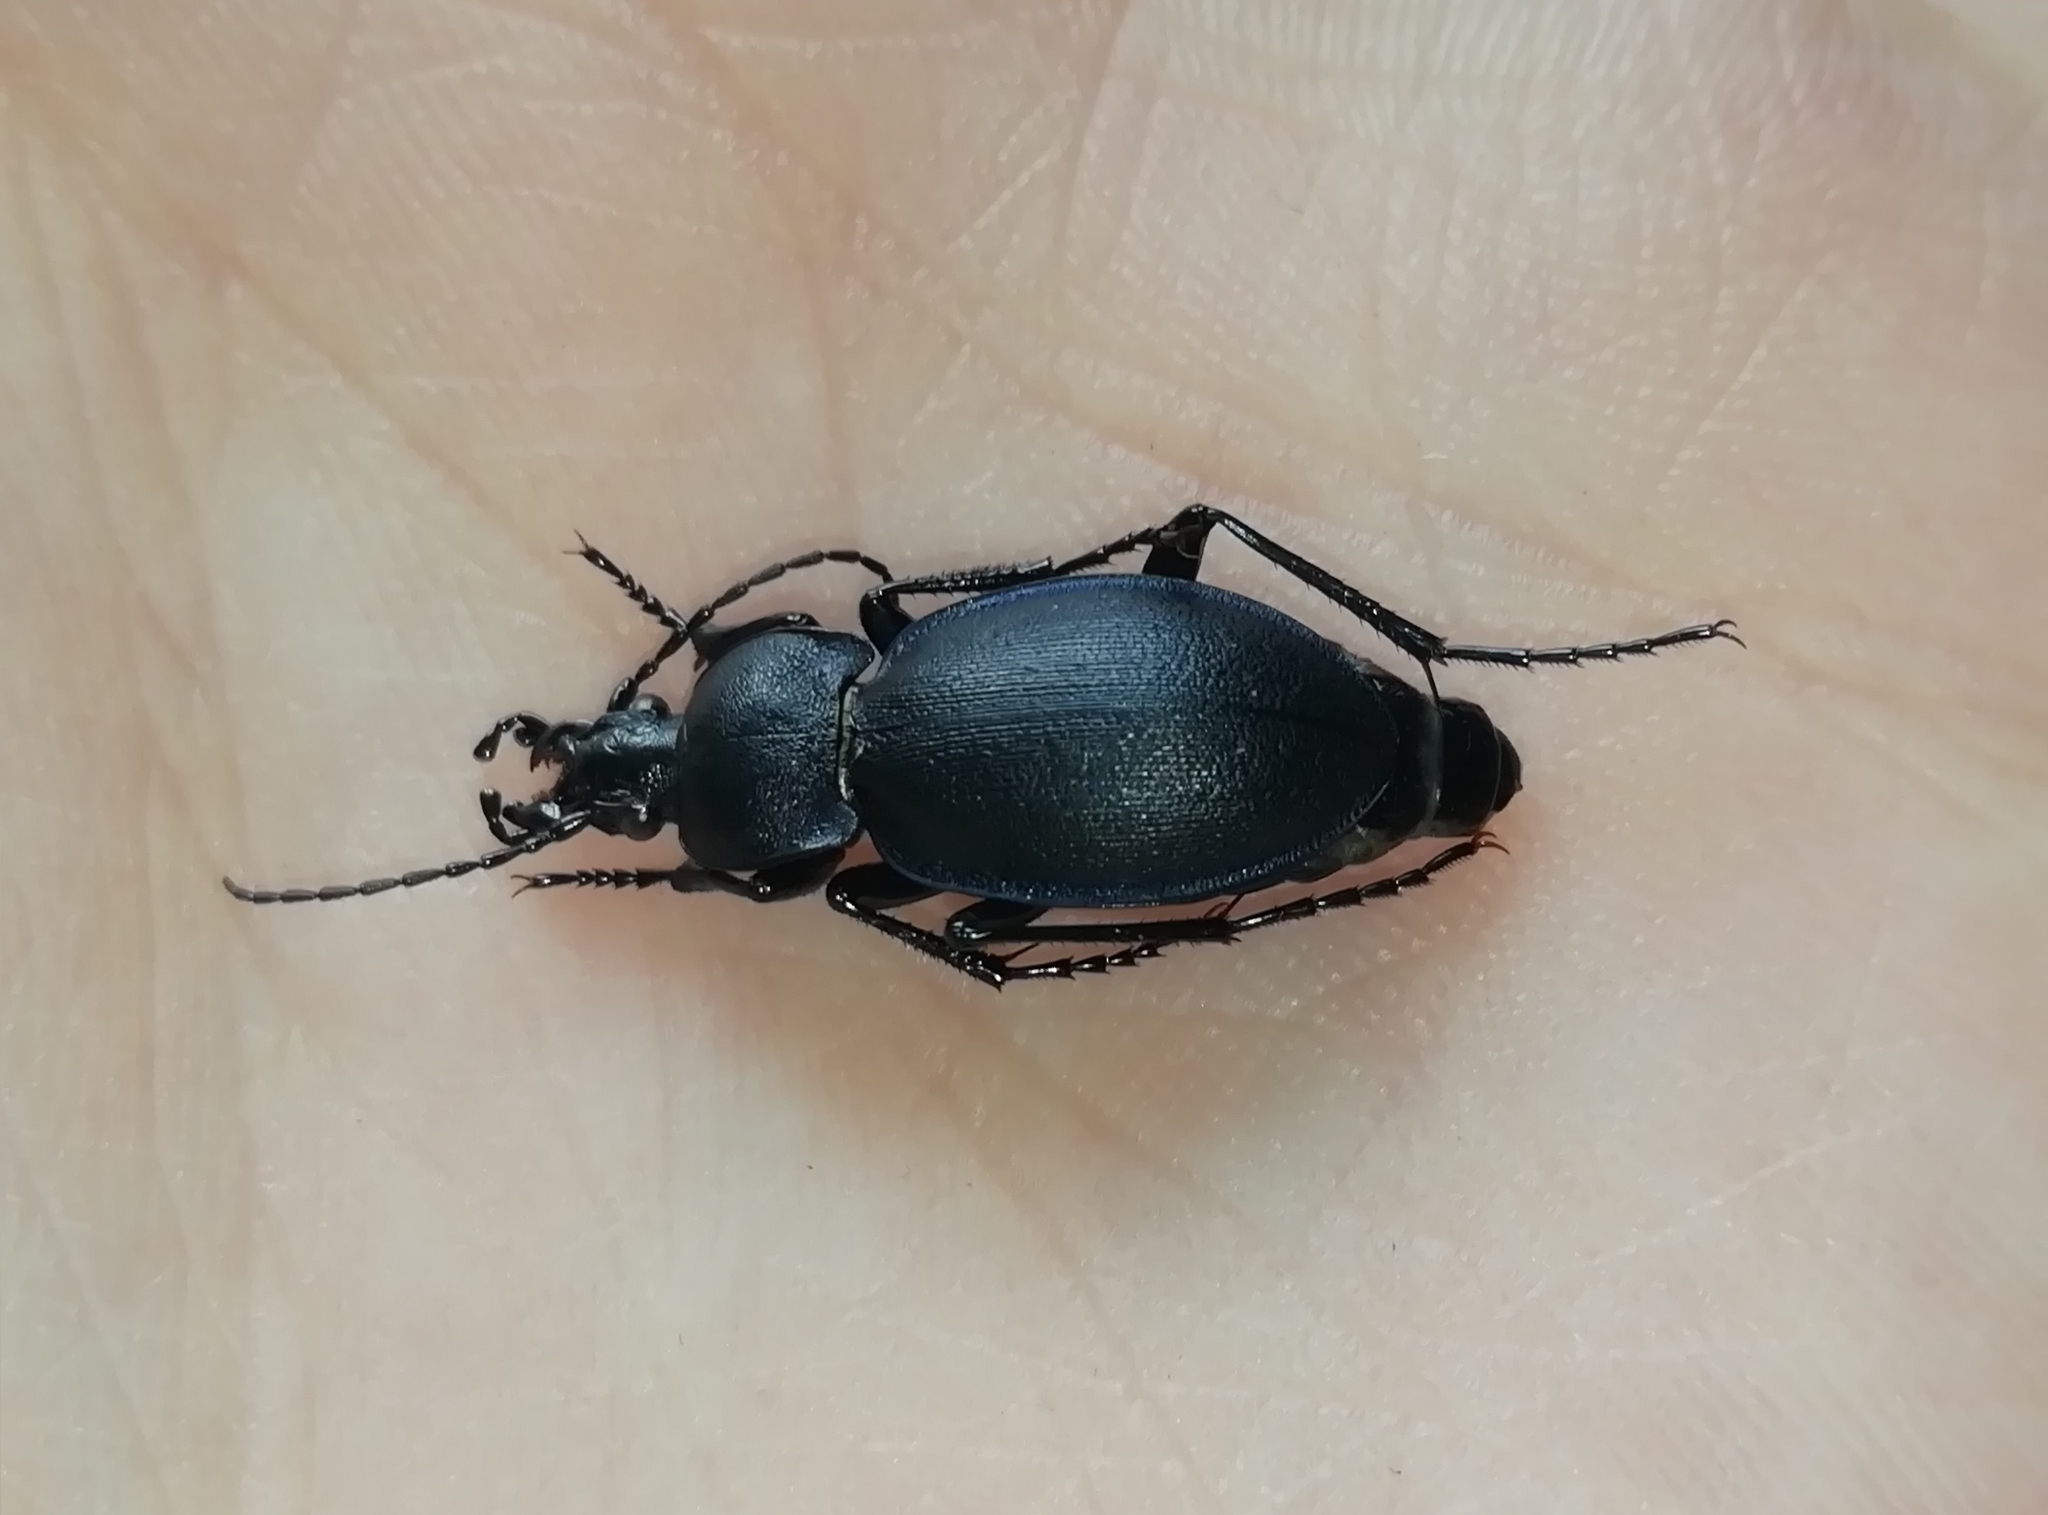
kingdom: Animalia
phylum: Arthropoda
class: Insecta
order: Coleoptera
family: Carabidae
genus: Carabus
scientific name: Carabus convexus
